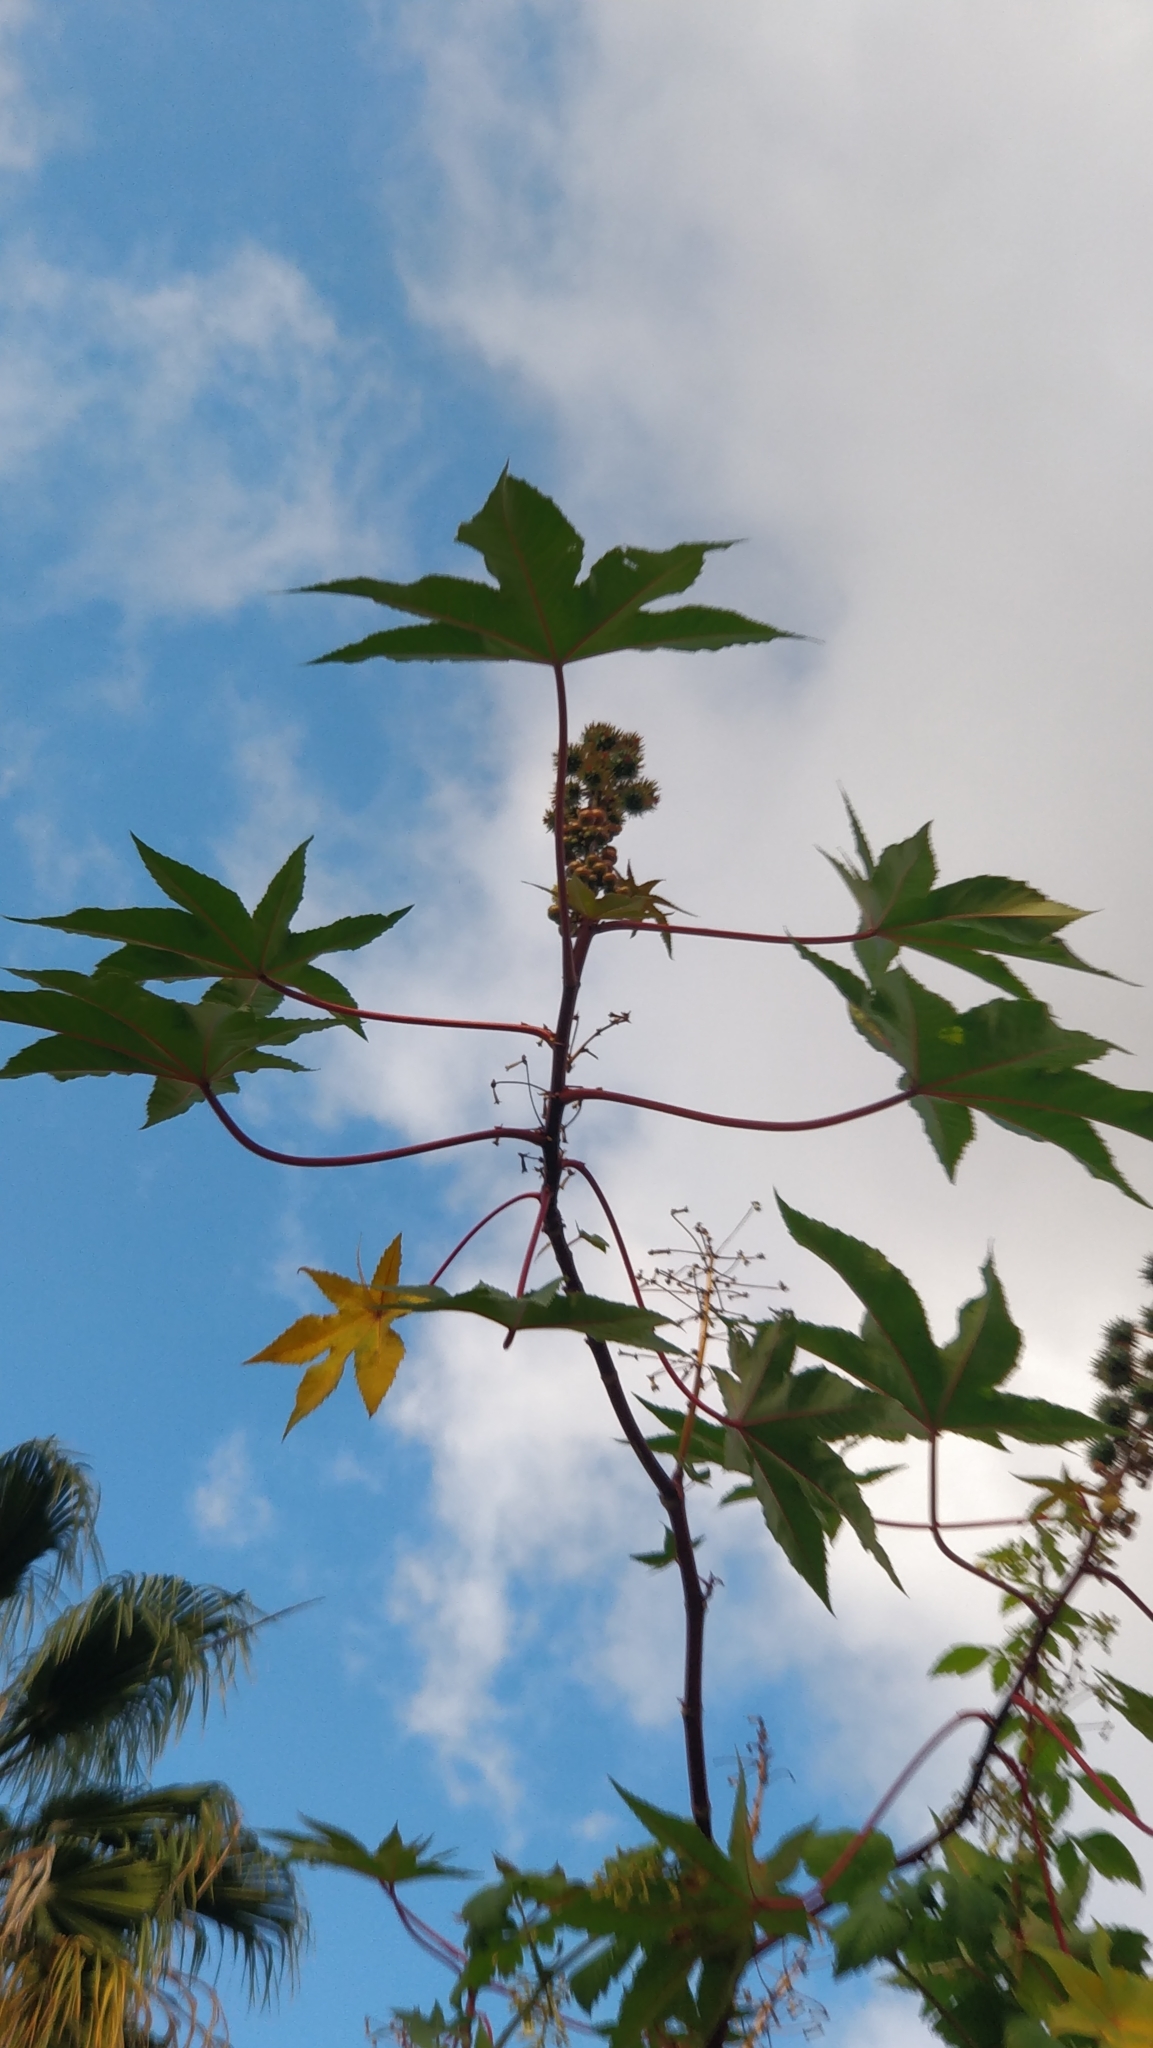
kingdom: Plantae
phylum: Tracheophyta
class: Magnoliopsida
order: Malpighiales
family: Euphorbiaceae
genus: Ricinus
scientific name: Ricinus communis
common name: Castor-oil-plant
